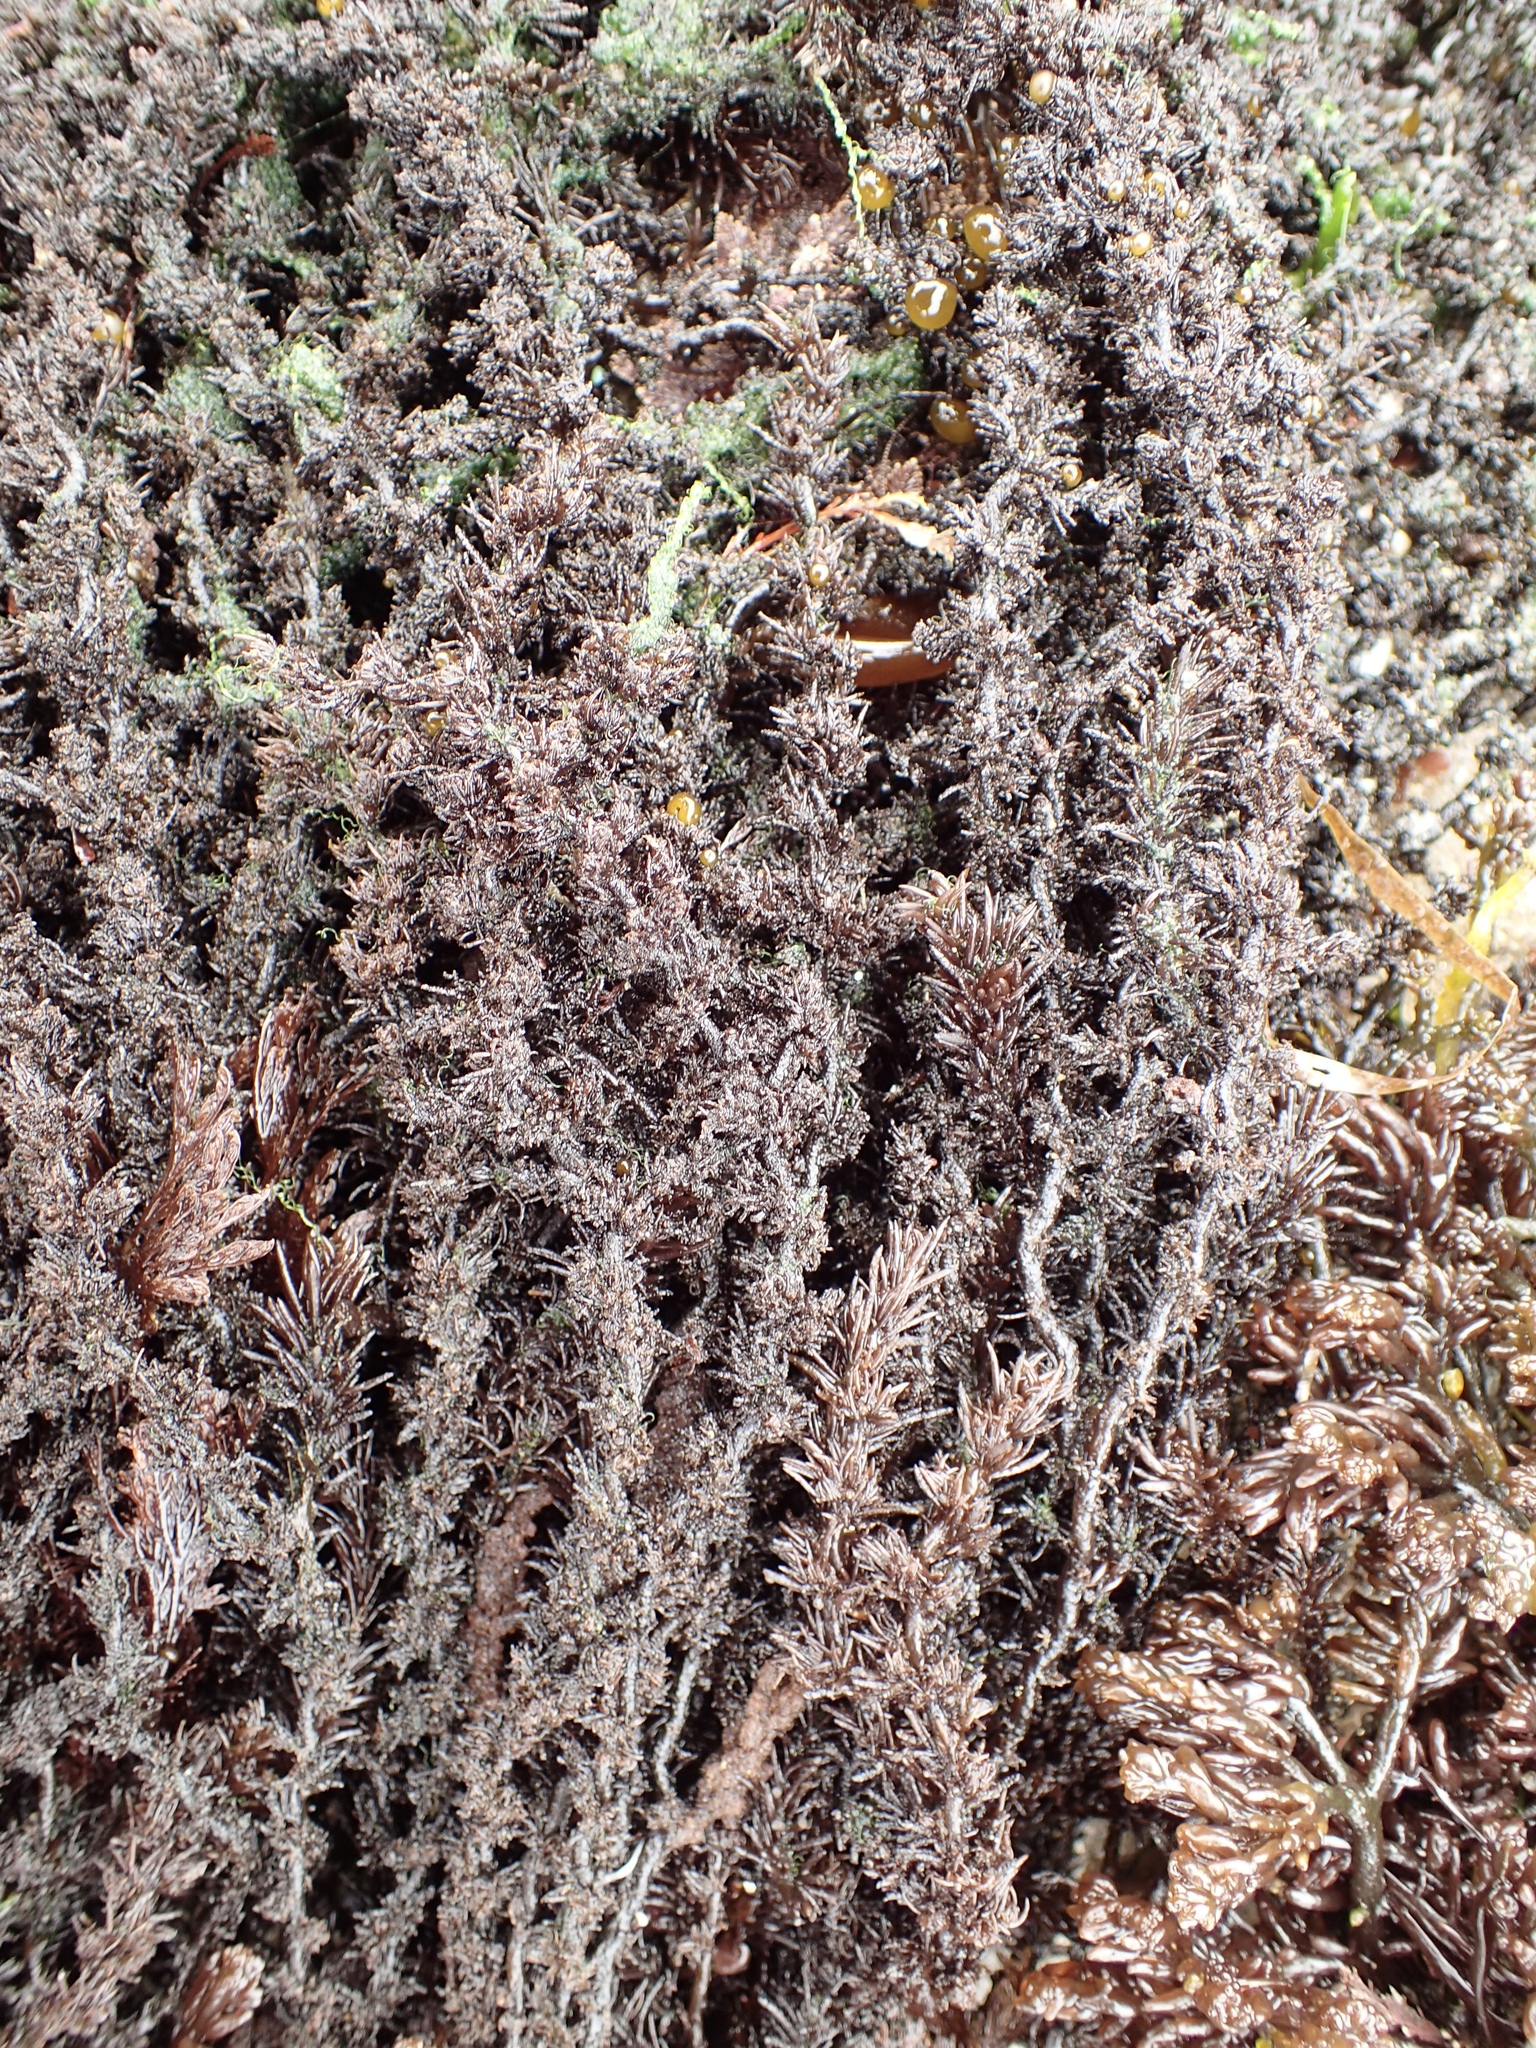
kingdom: Plantae
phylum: Rhodophyta
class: Florideophyceae
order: Ceramiales
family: Rhodomelaceae
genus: Neorhodomela
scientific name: Neorhodomela larix
